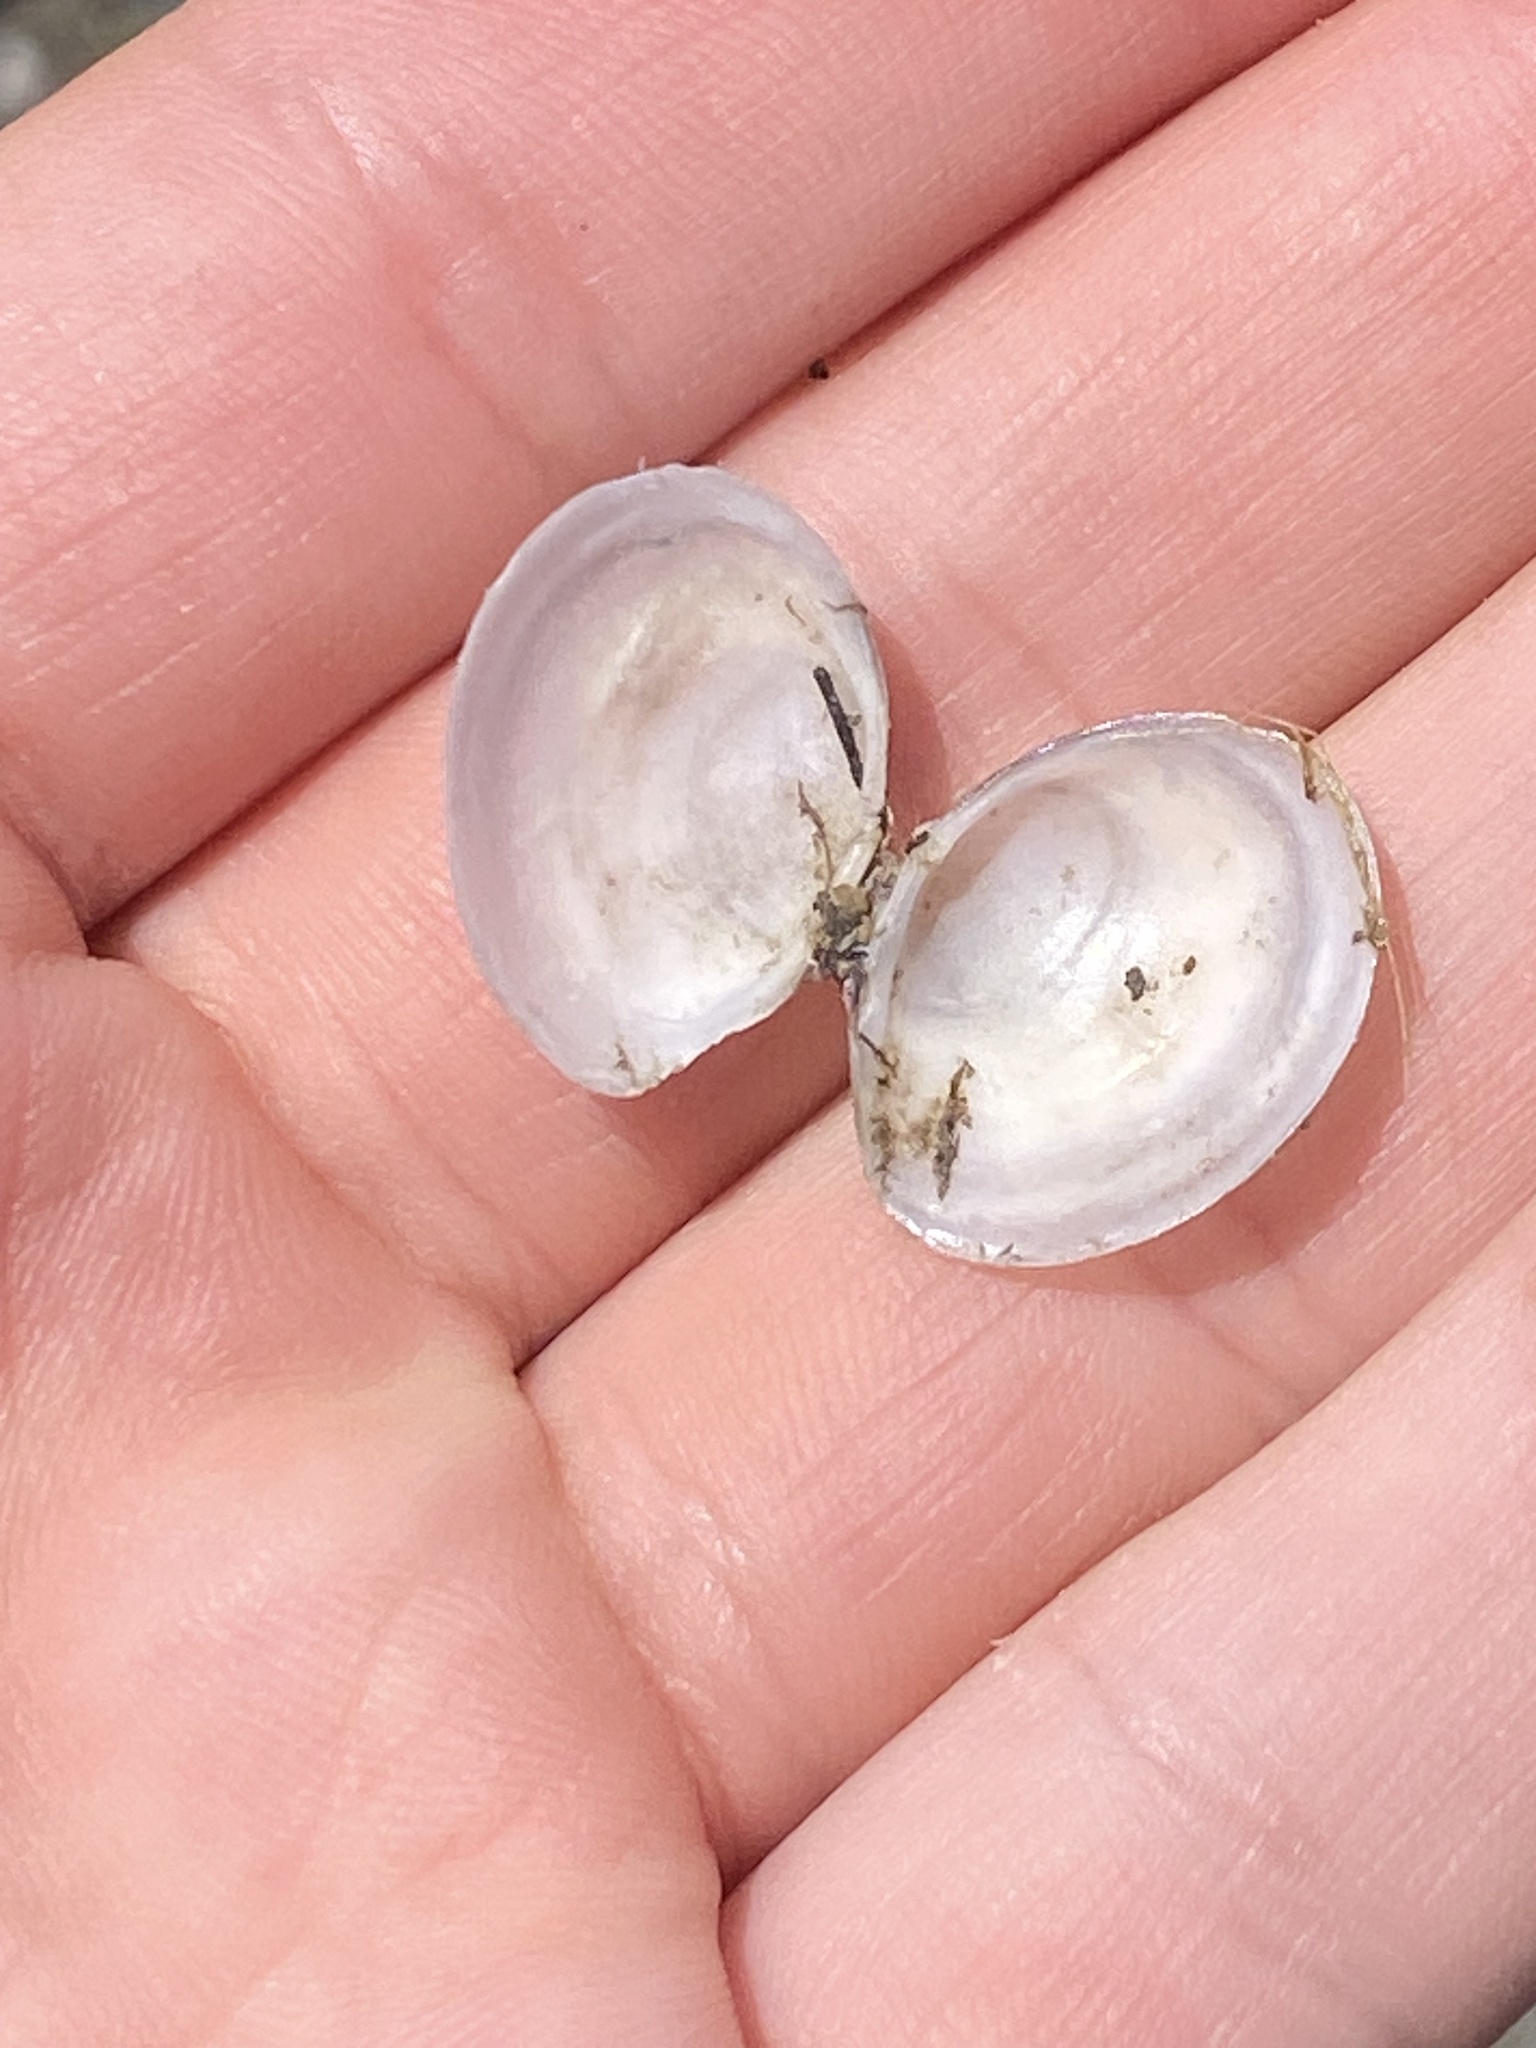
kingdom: Animalia
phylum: Mollusca
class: Bivalvia
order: Cardiida
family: Tellinidae
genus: Macoma
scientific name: Macoma petalum
